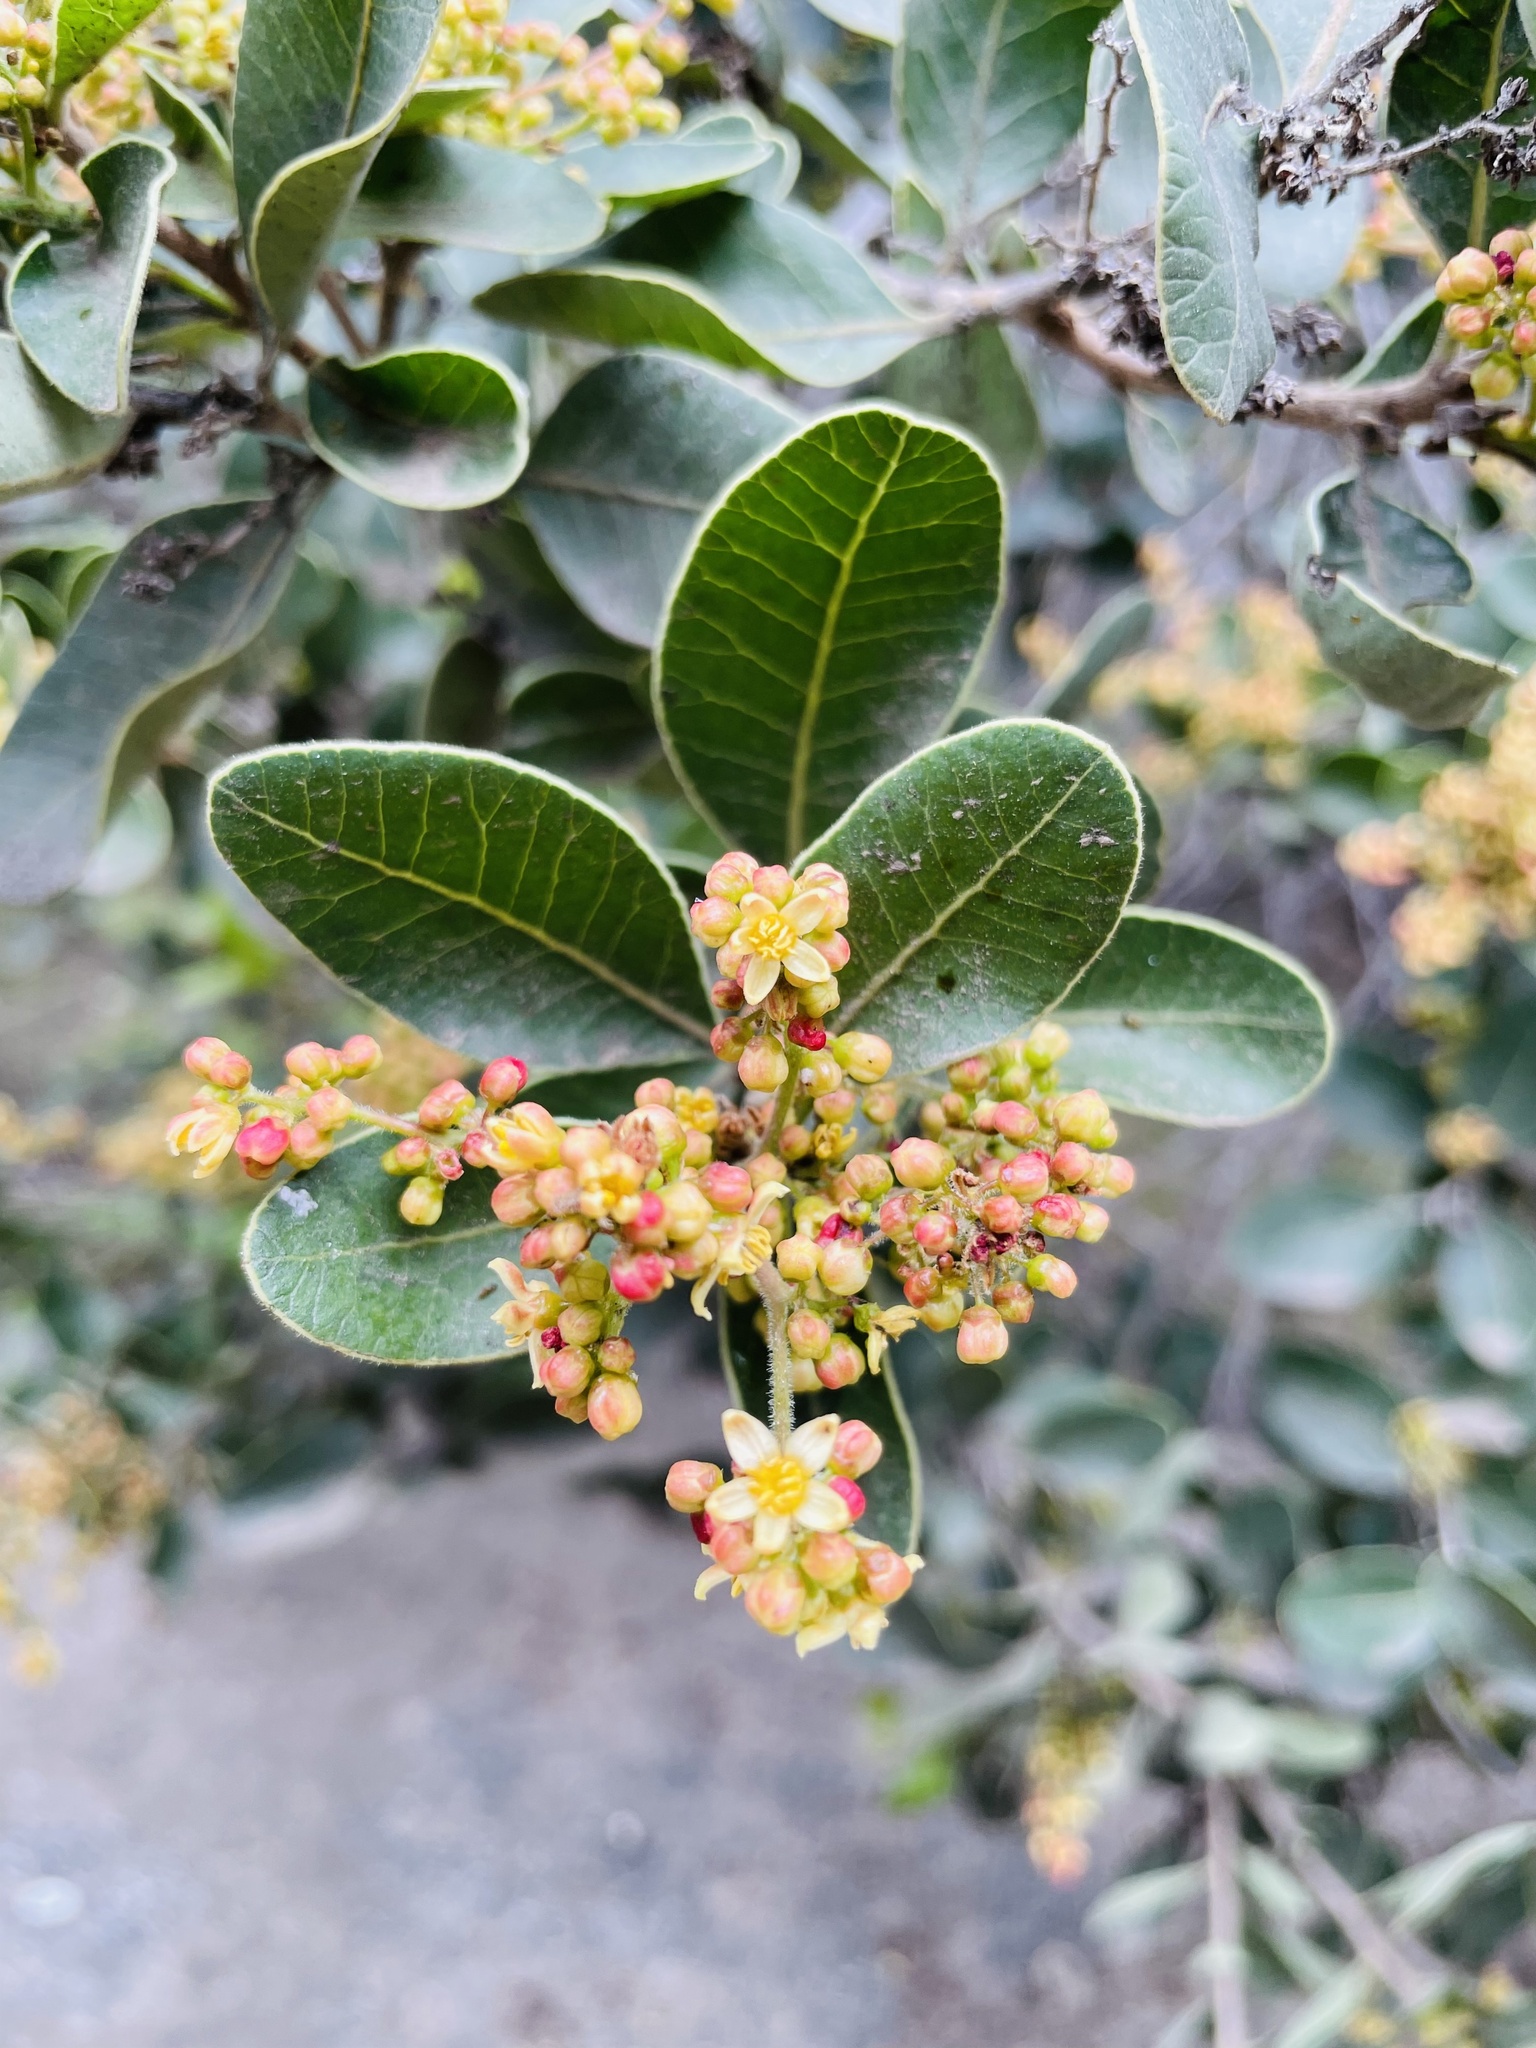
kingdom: Plantae
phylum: Tracheophyta
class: Magnoliopsida
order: Sapindales
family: Anacardiaceae
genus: Lithraea
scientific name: Lithraea caustica
